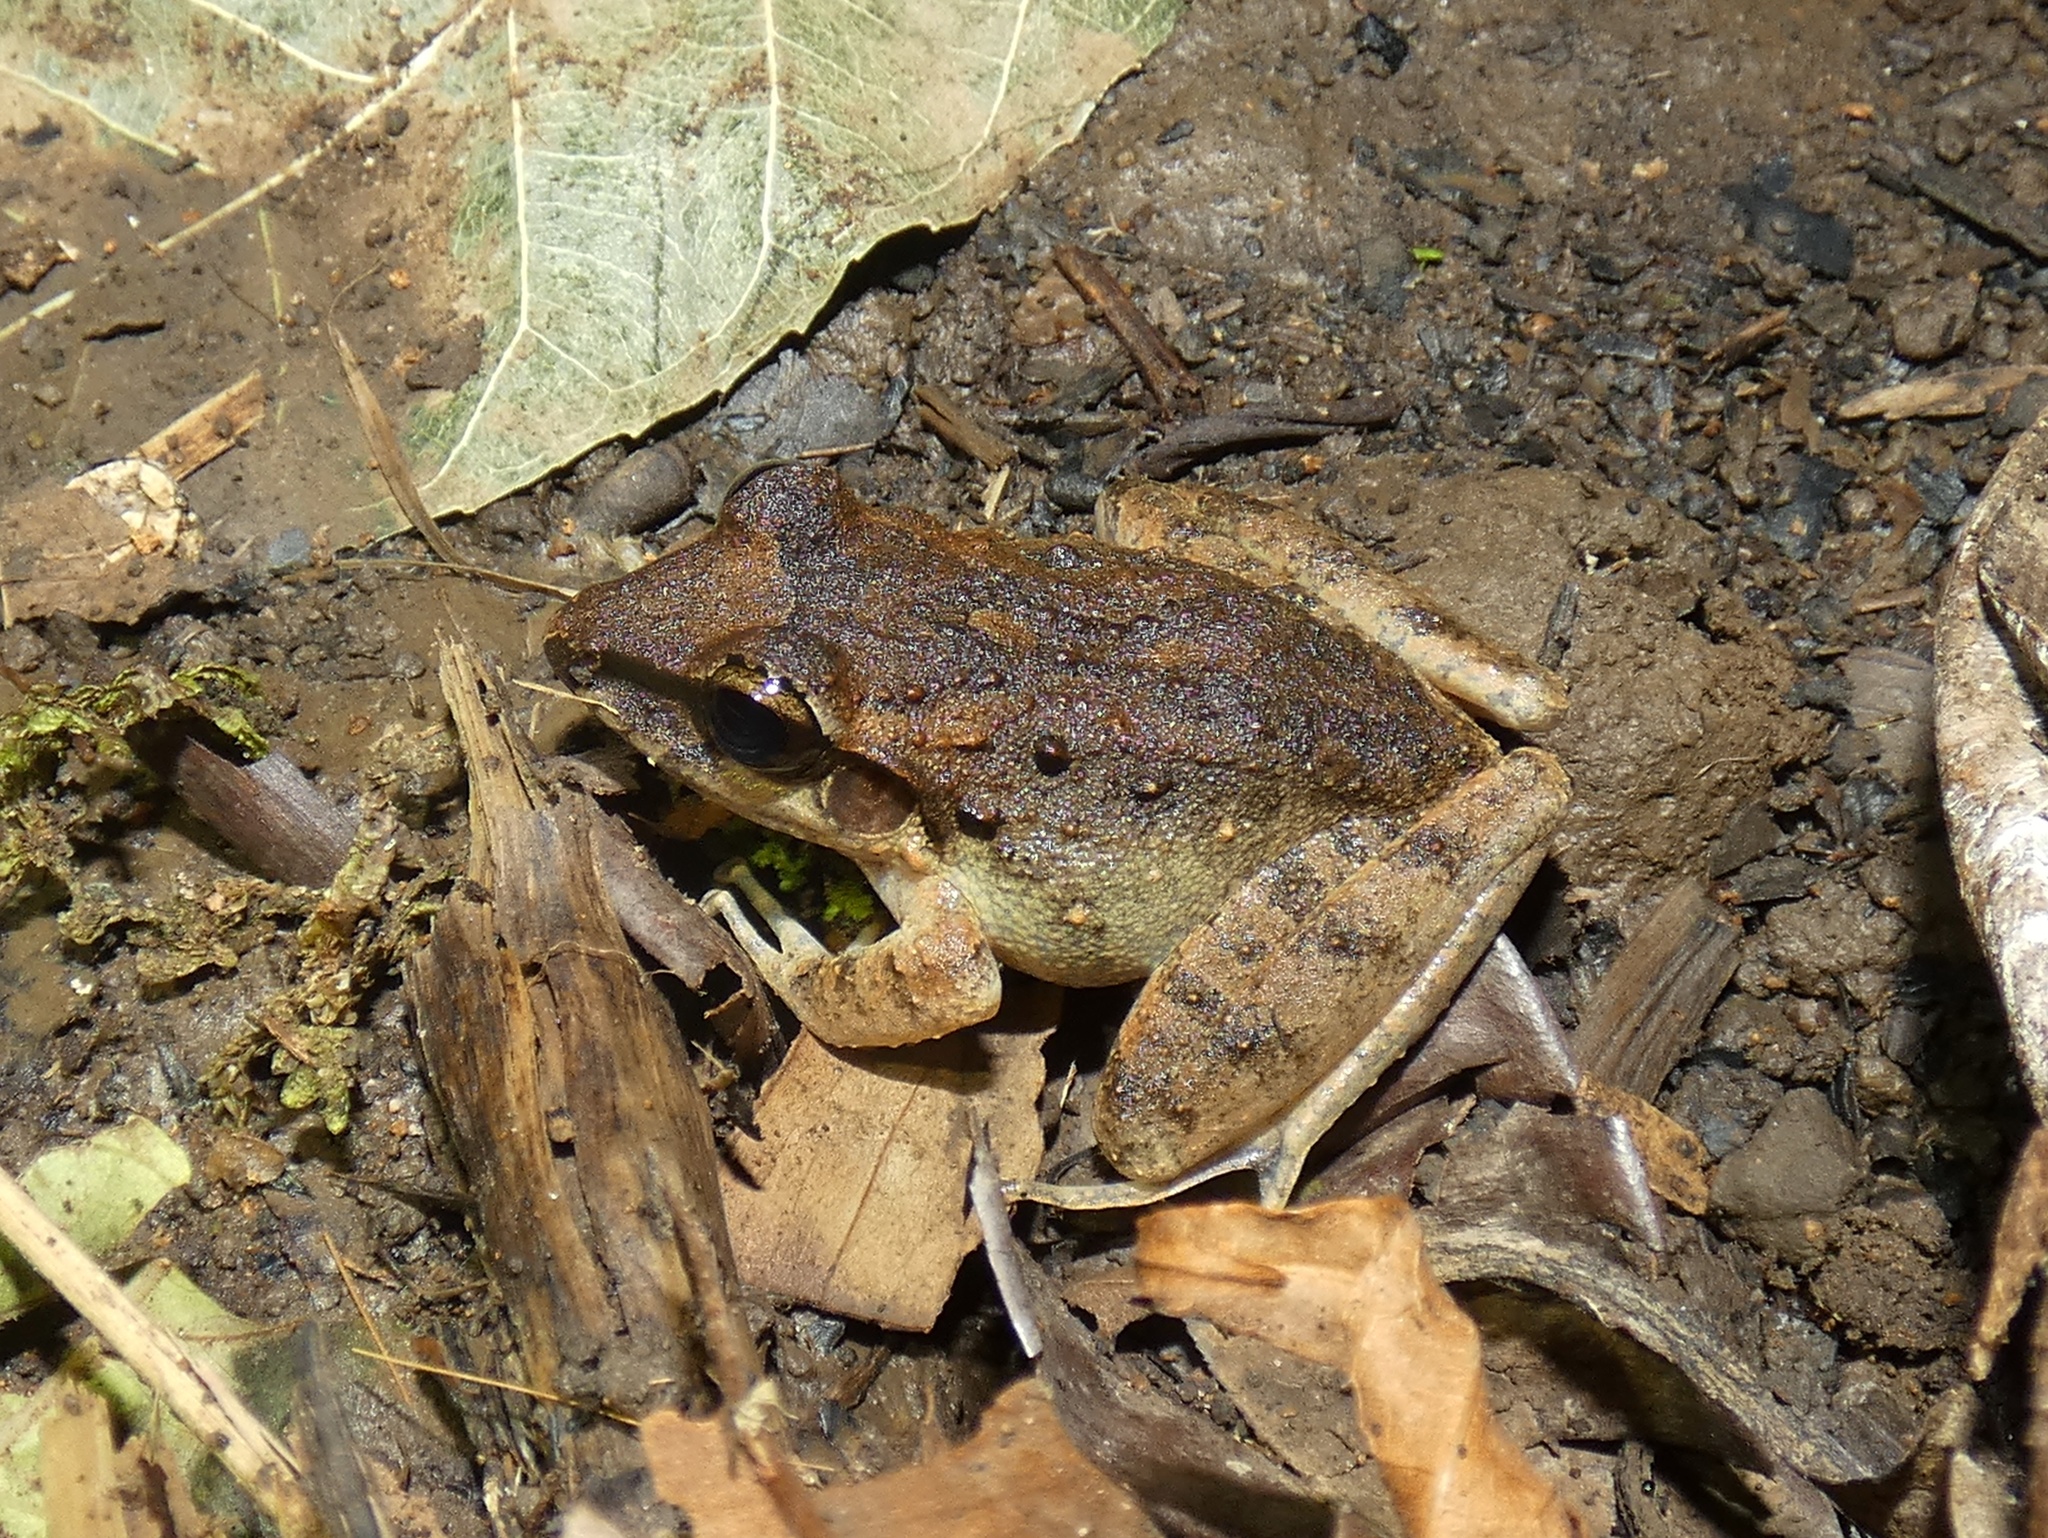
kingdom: Animalia
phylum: Chordata
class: Amphibia
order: Anura
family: Craugastoridae
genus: Craugastor
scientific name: Craugastor fitzingeri
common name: Fitzinger's robber frog
